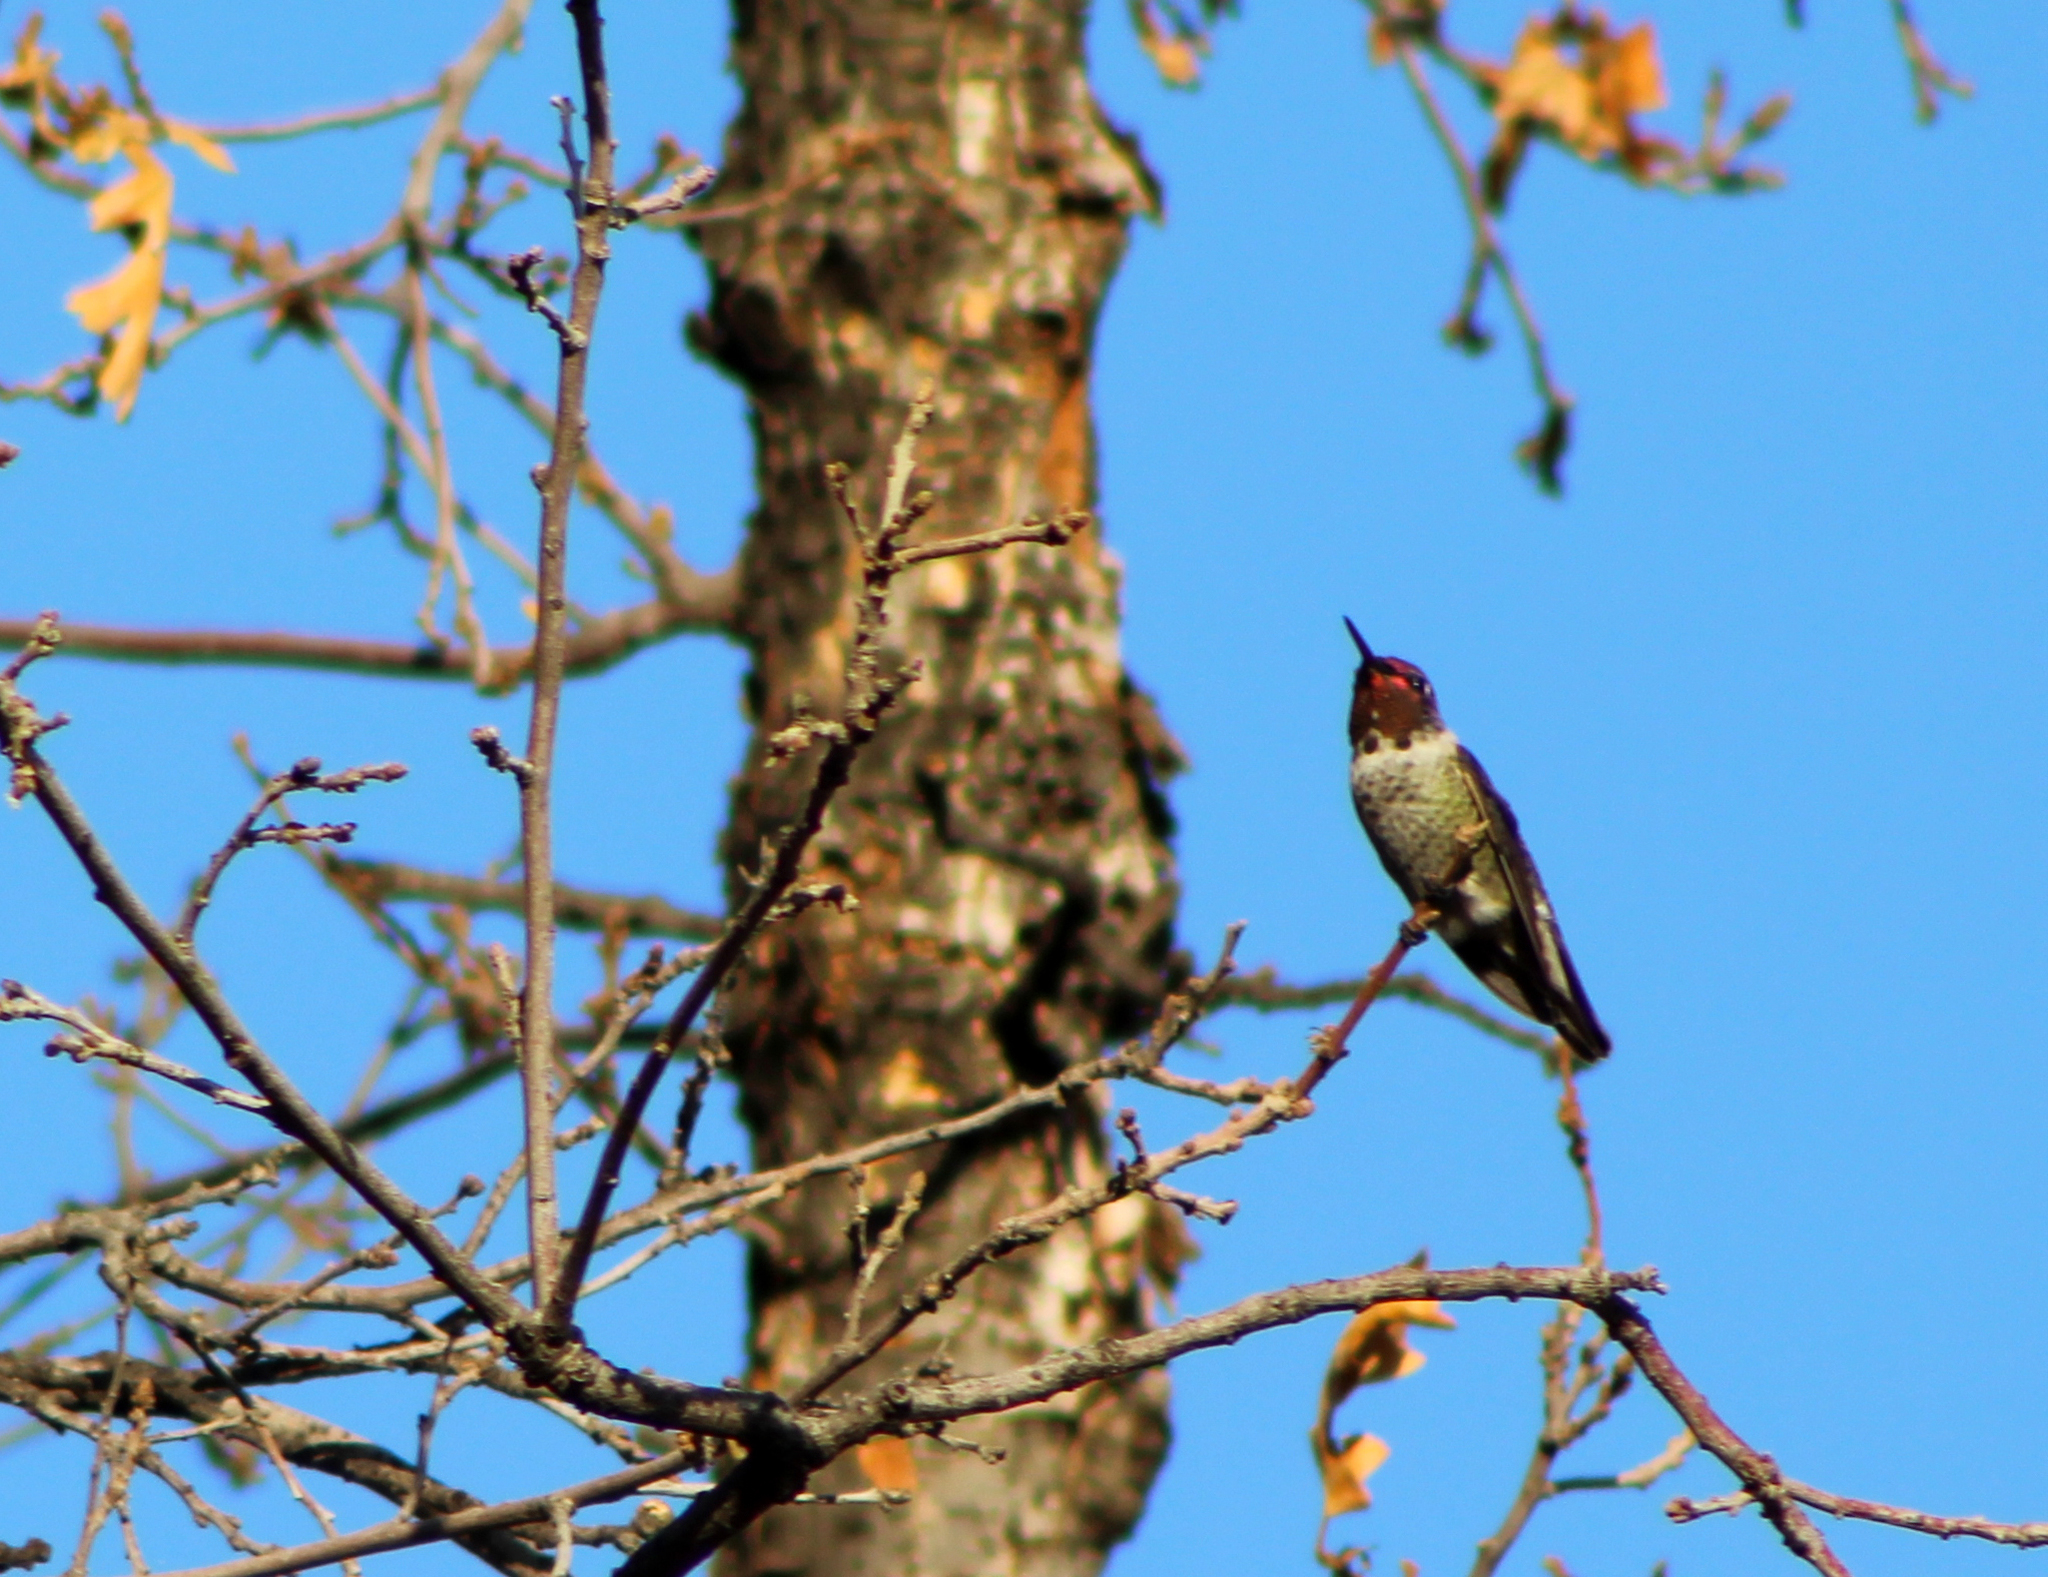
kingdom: Animalia
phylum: Chordata
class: Aves
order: Apodiformes
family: Trochilidae
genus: Calypte
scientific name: Calypte anna
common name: Anna's hummingbird
